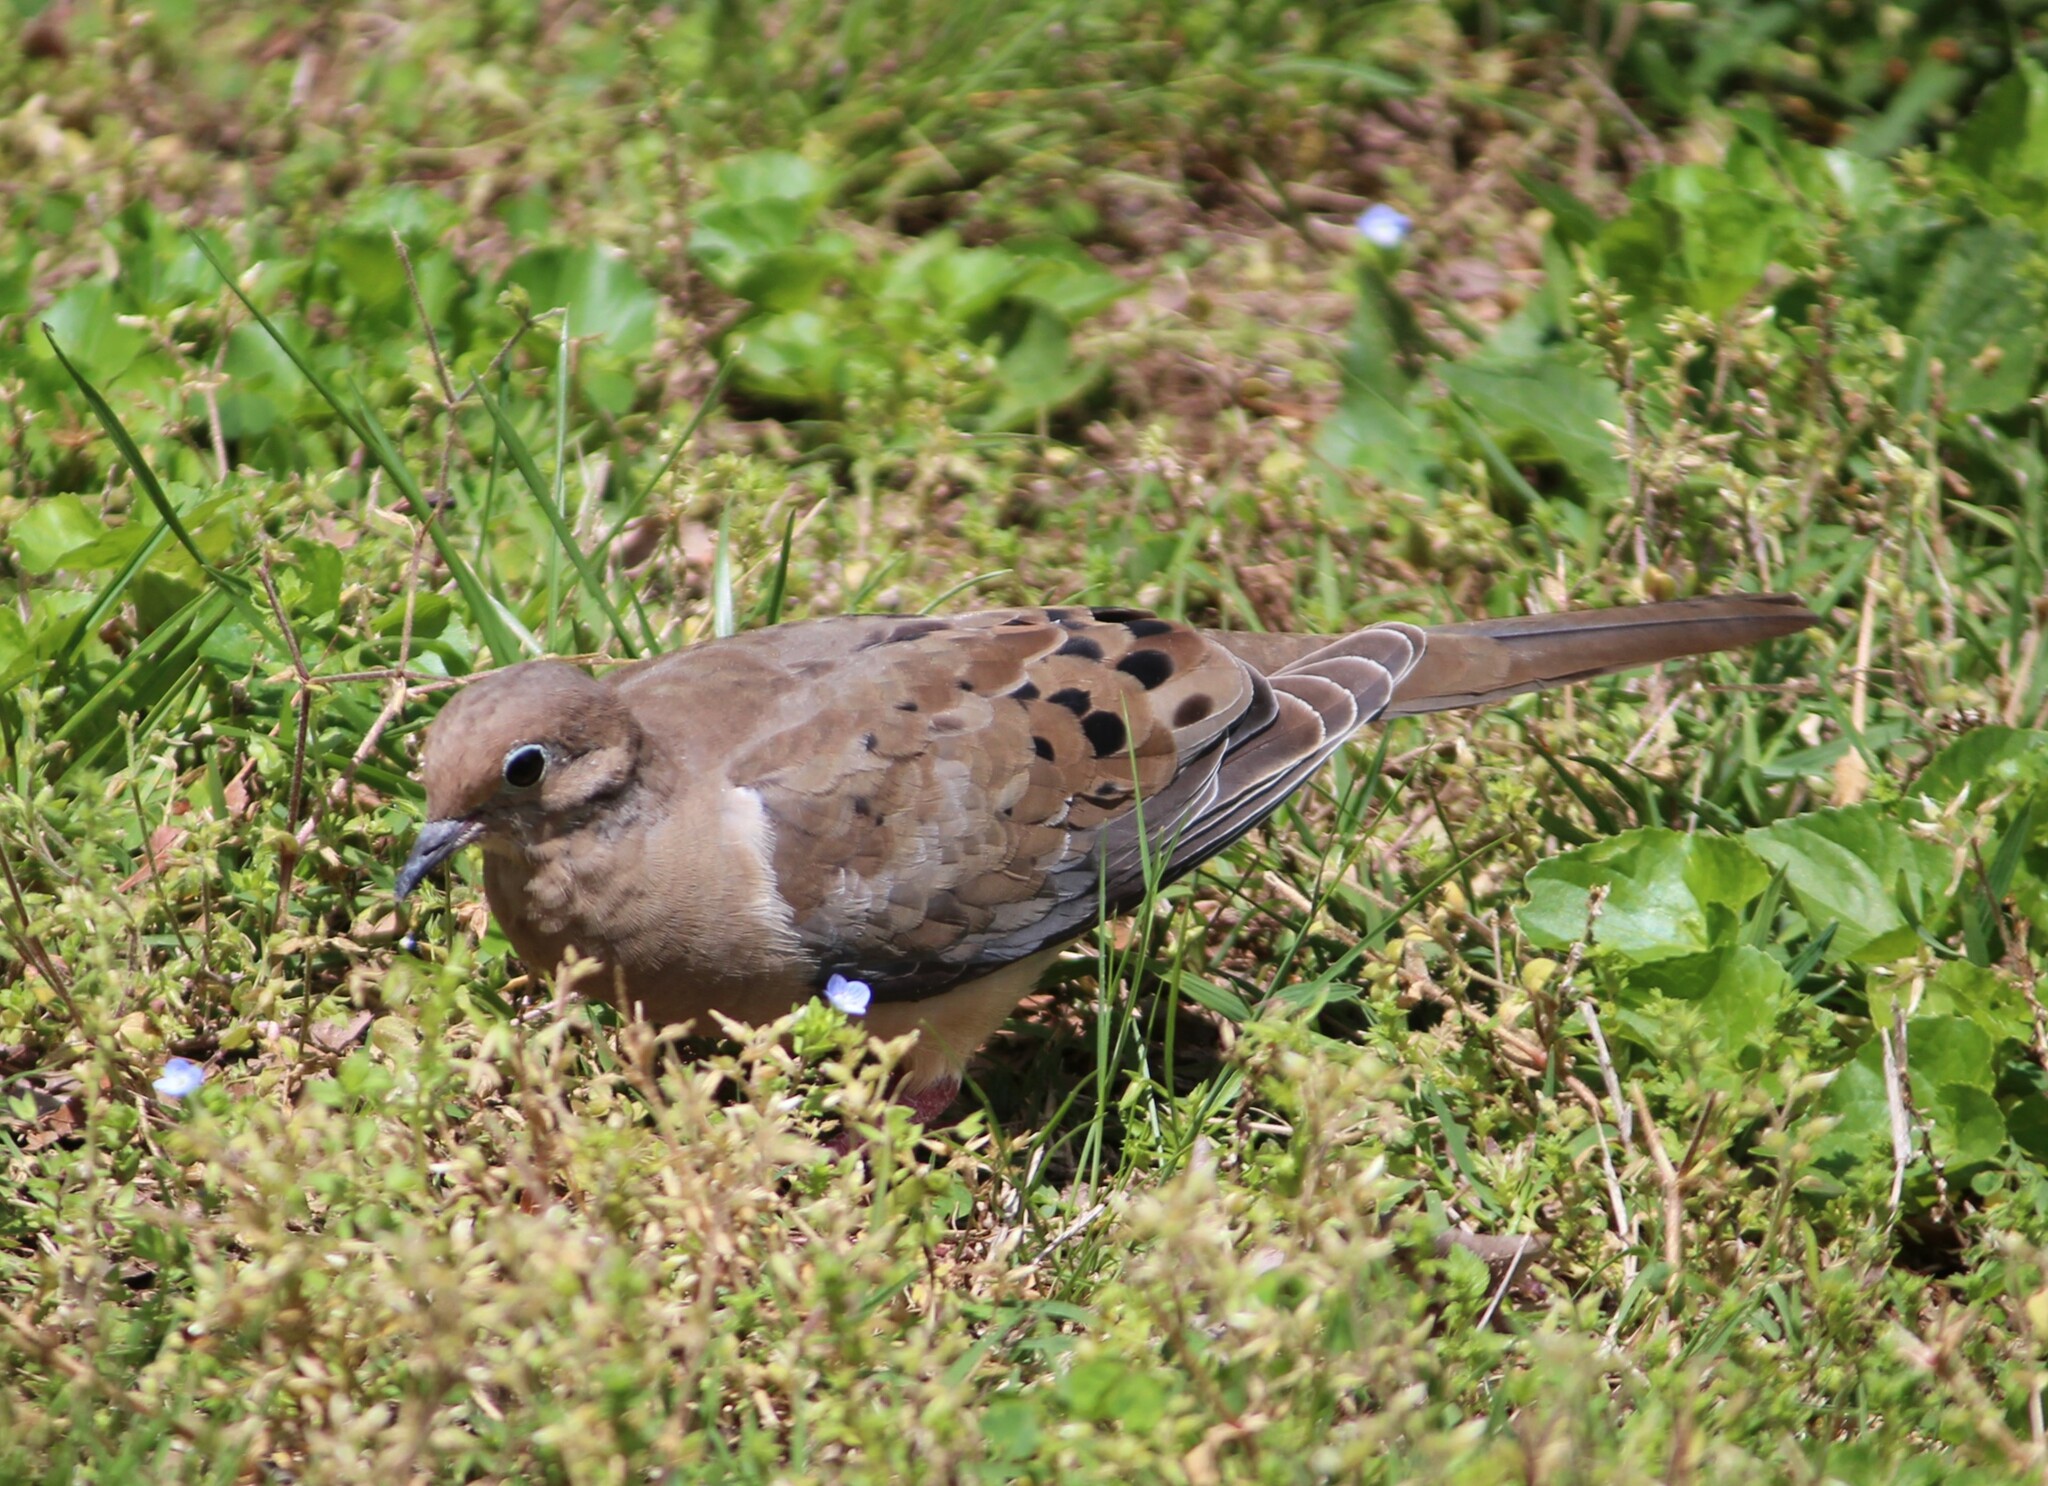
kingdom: Animalia
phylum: Chordata
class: Aves
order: Columbiformes
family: Columbidae
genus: Zenaida
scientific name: Zenaida macroura
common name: Mourning dove
